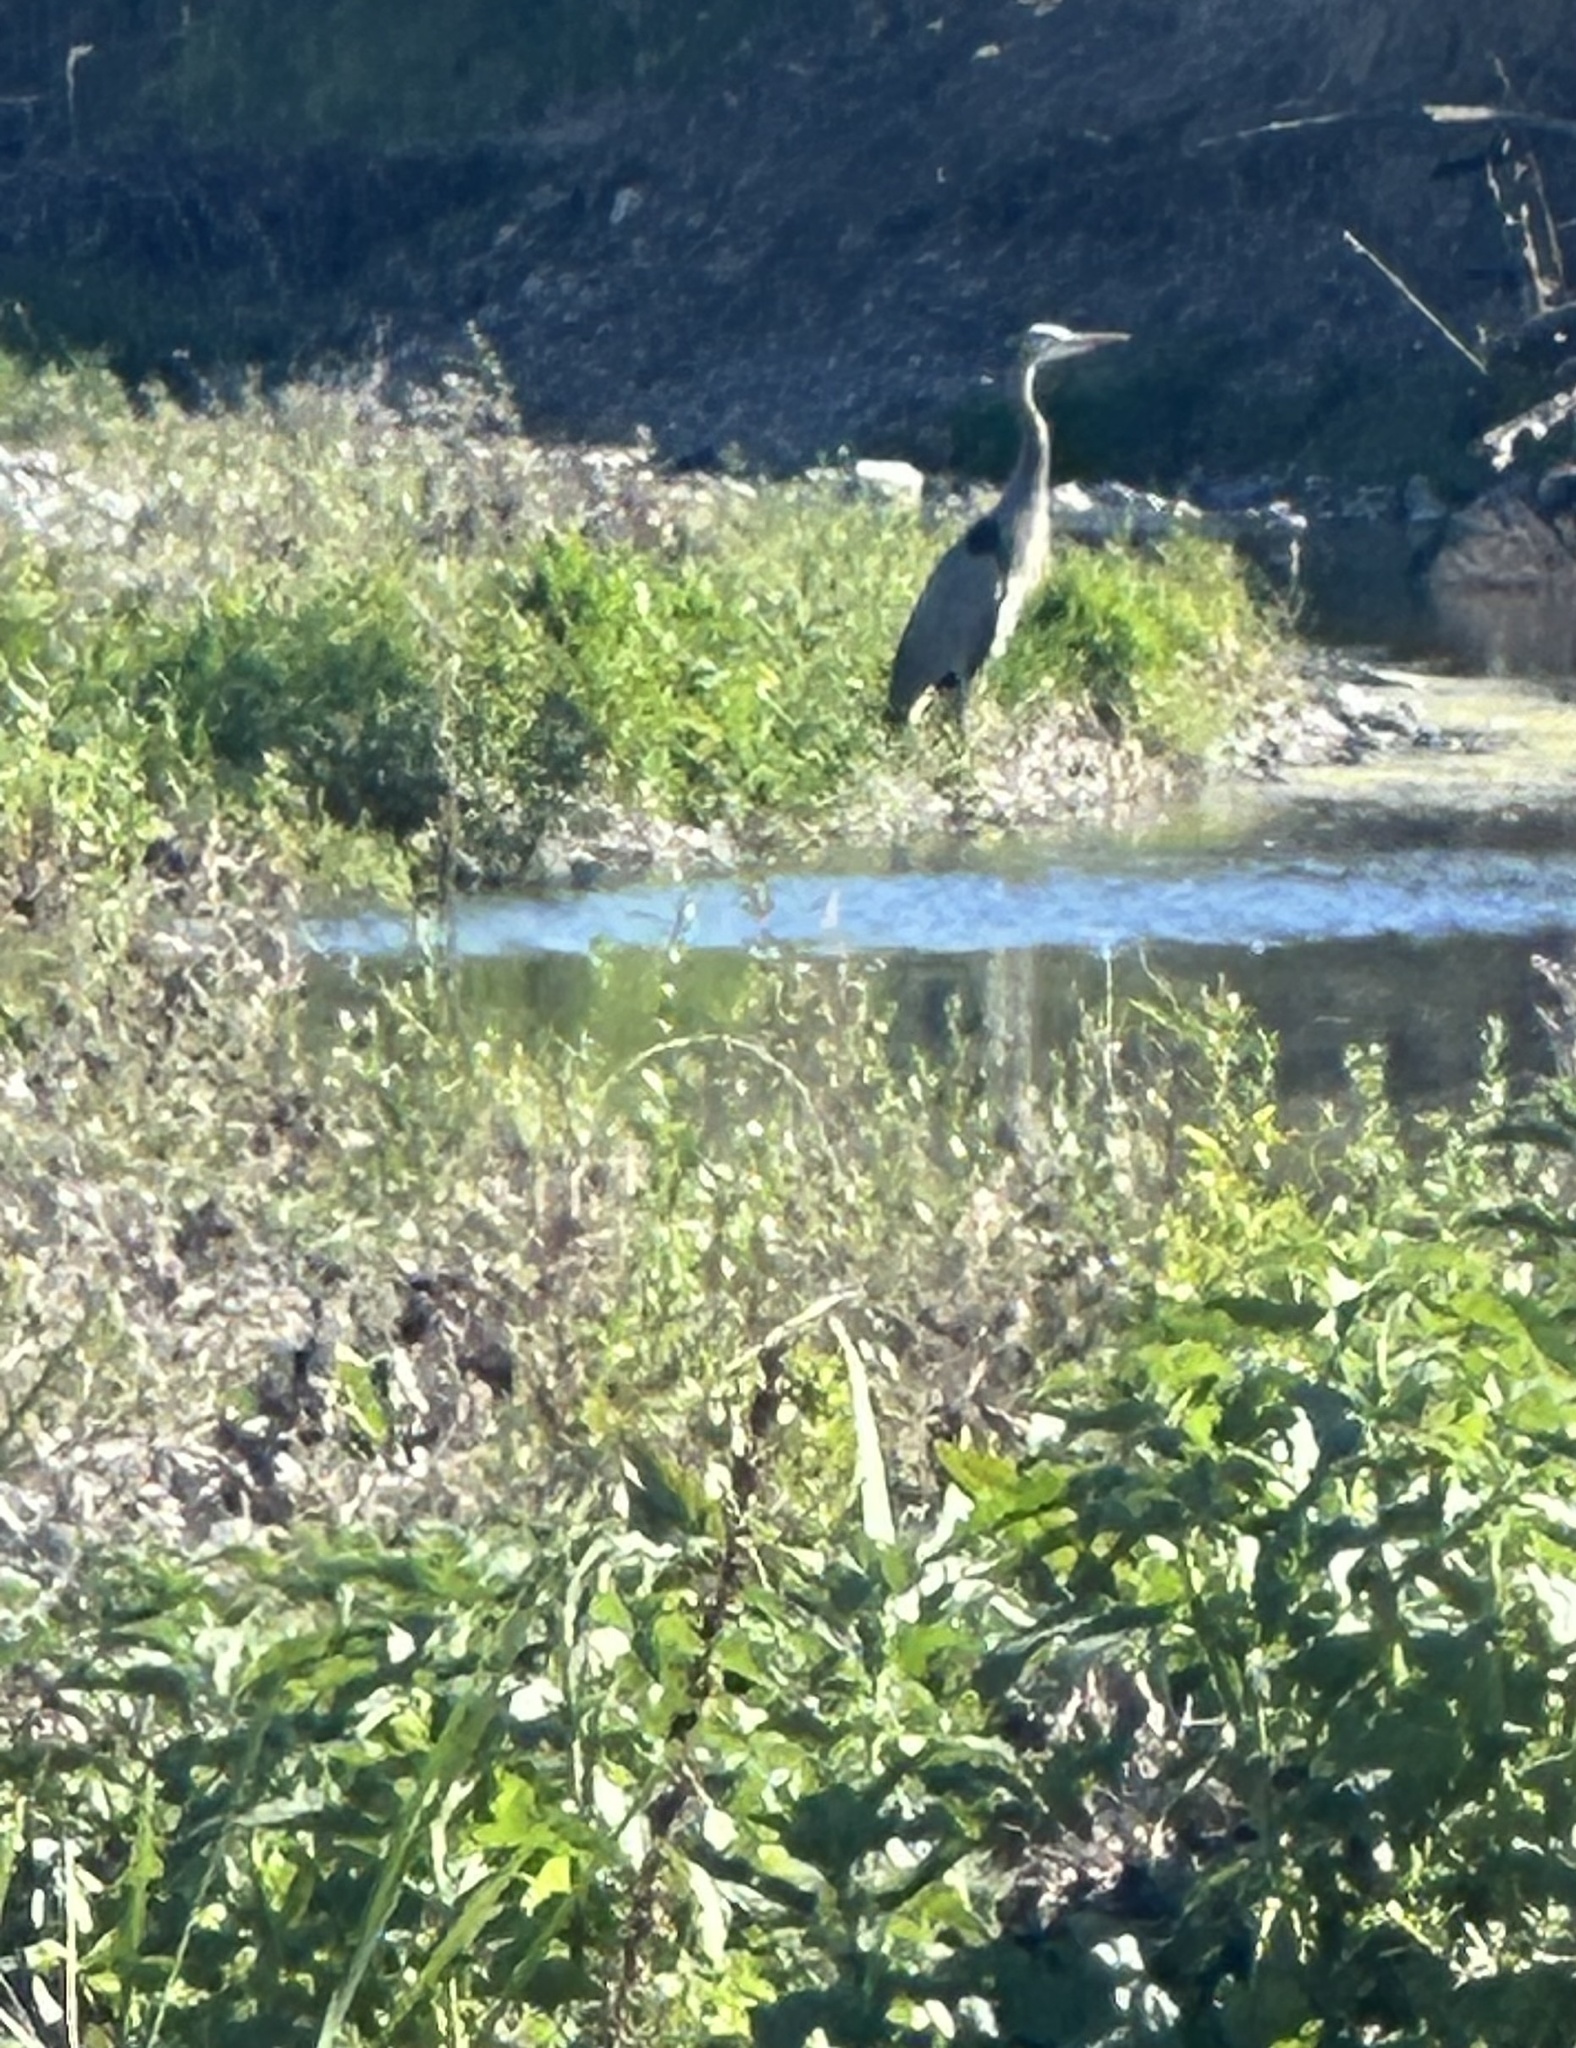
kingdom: Animalia
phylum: Chordata
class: Aves
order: Pelecaniformes
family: Ardeidae
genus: Ardea
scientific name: Ardea herodias
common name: Great blue heron
